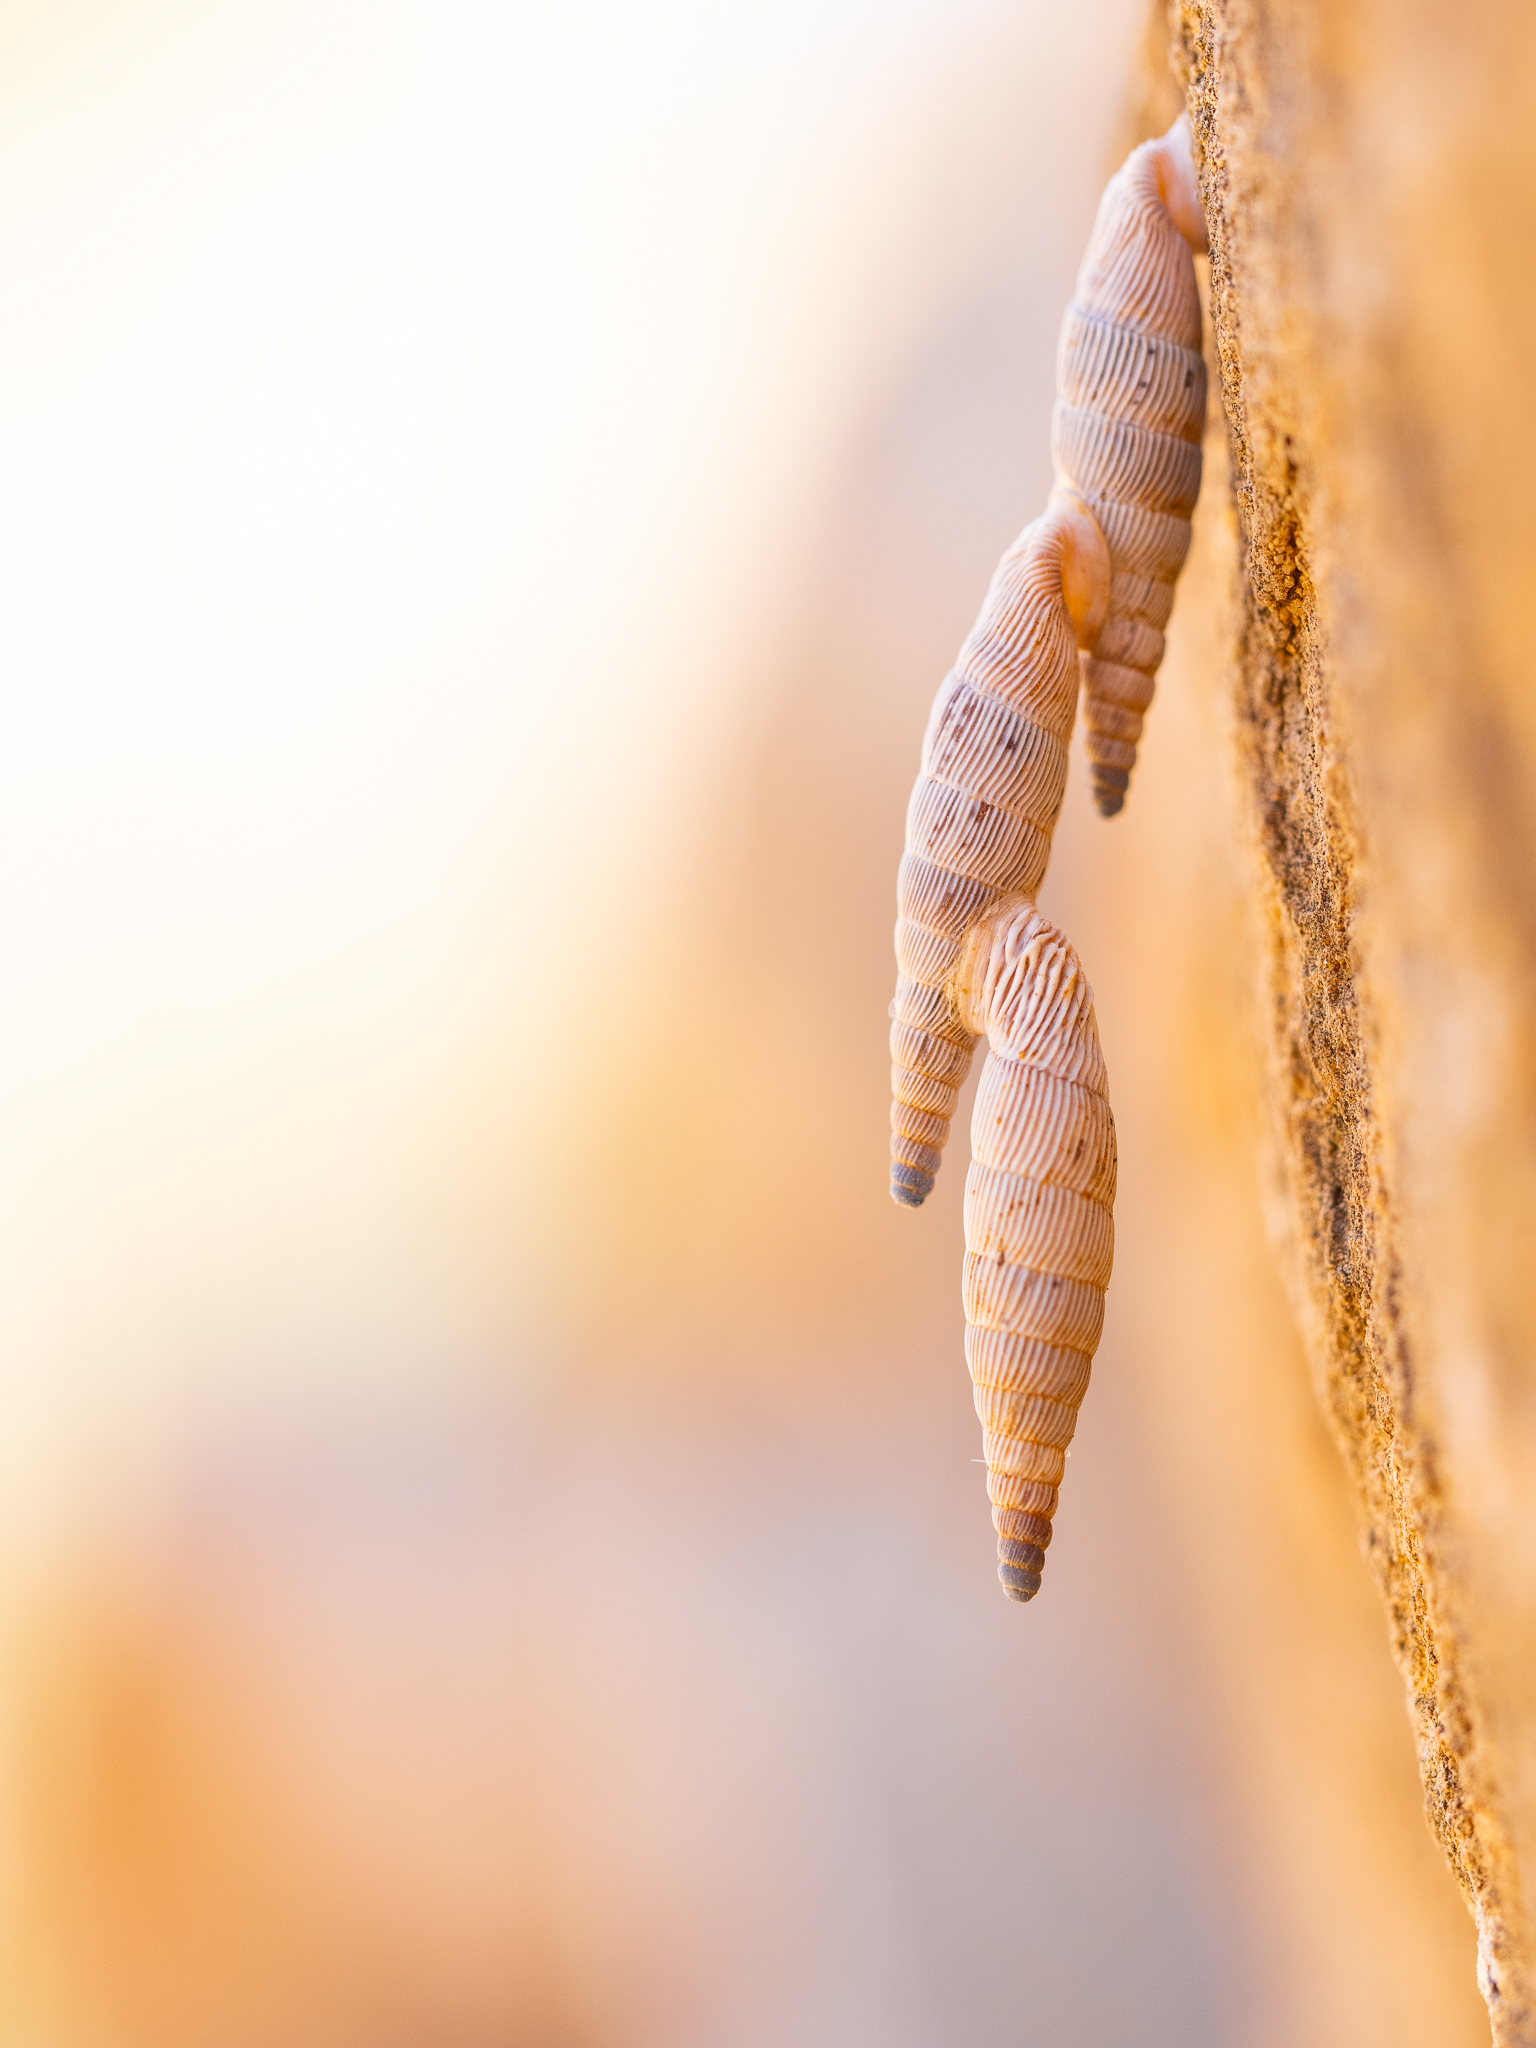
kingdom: Animalia
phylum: Mollusca
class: Gastropoda
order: Stylommatophora
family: Clausiliidae
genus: Albinaria
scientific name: Albinaria caerulea
